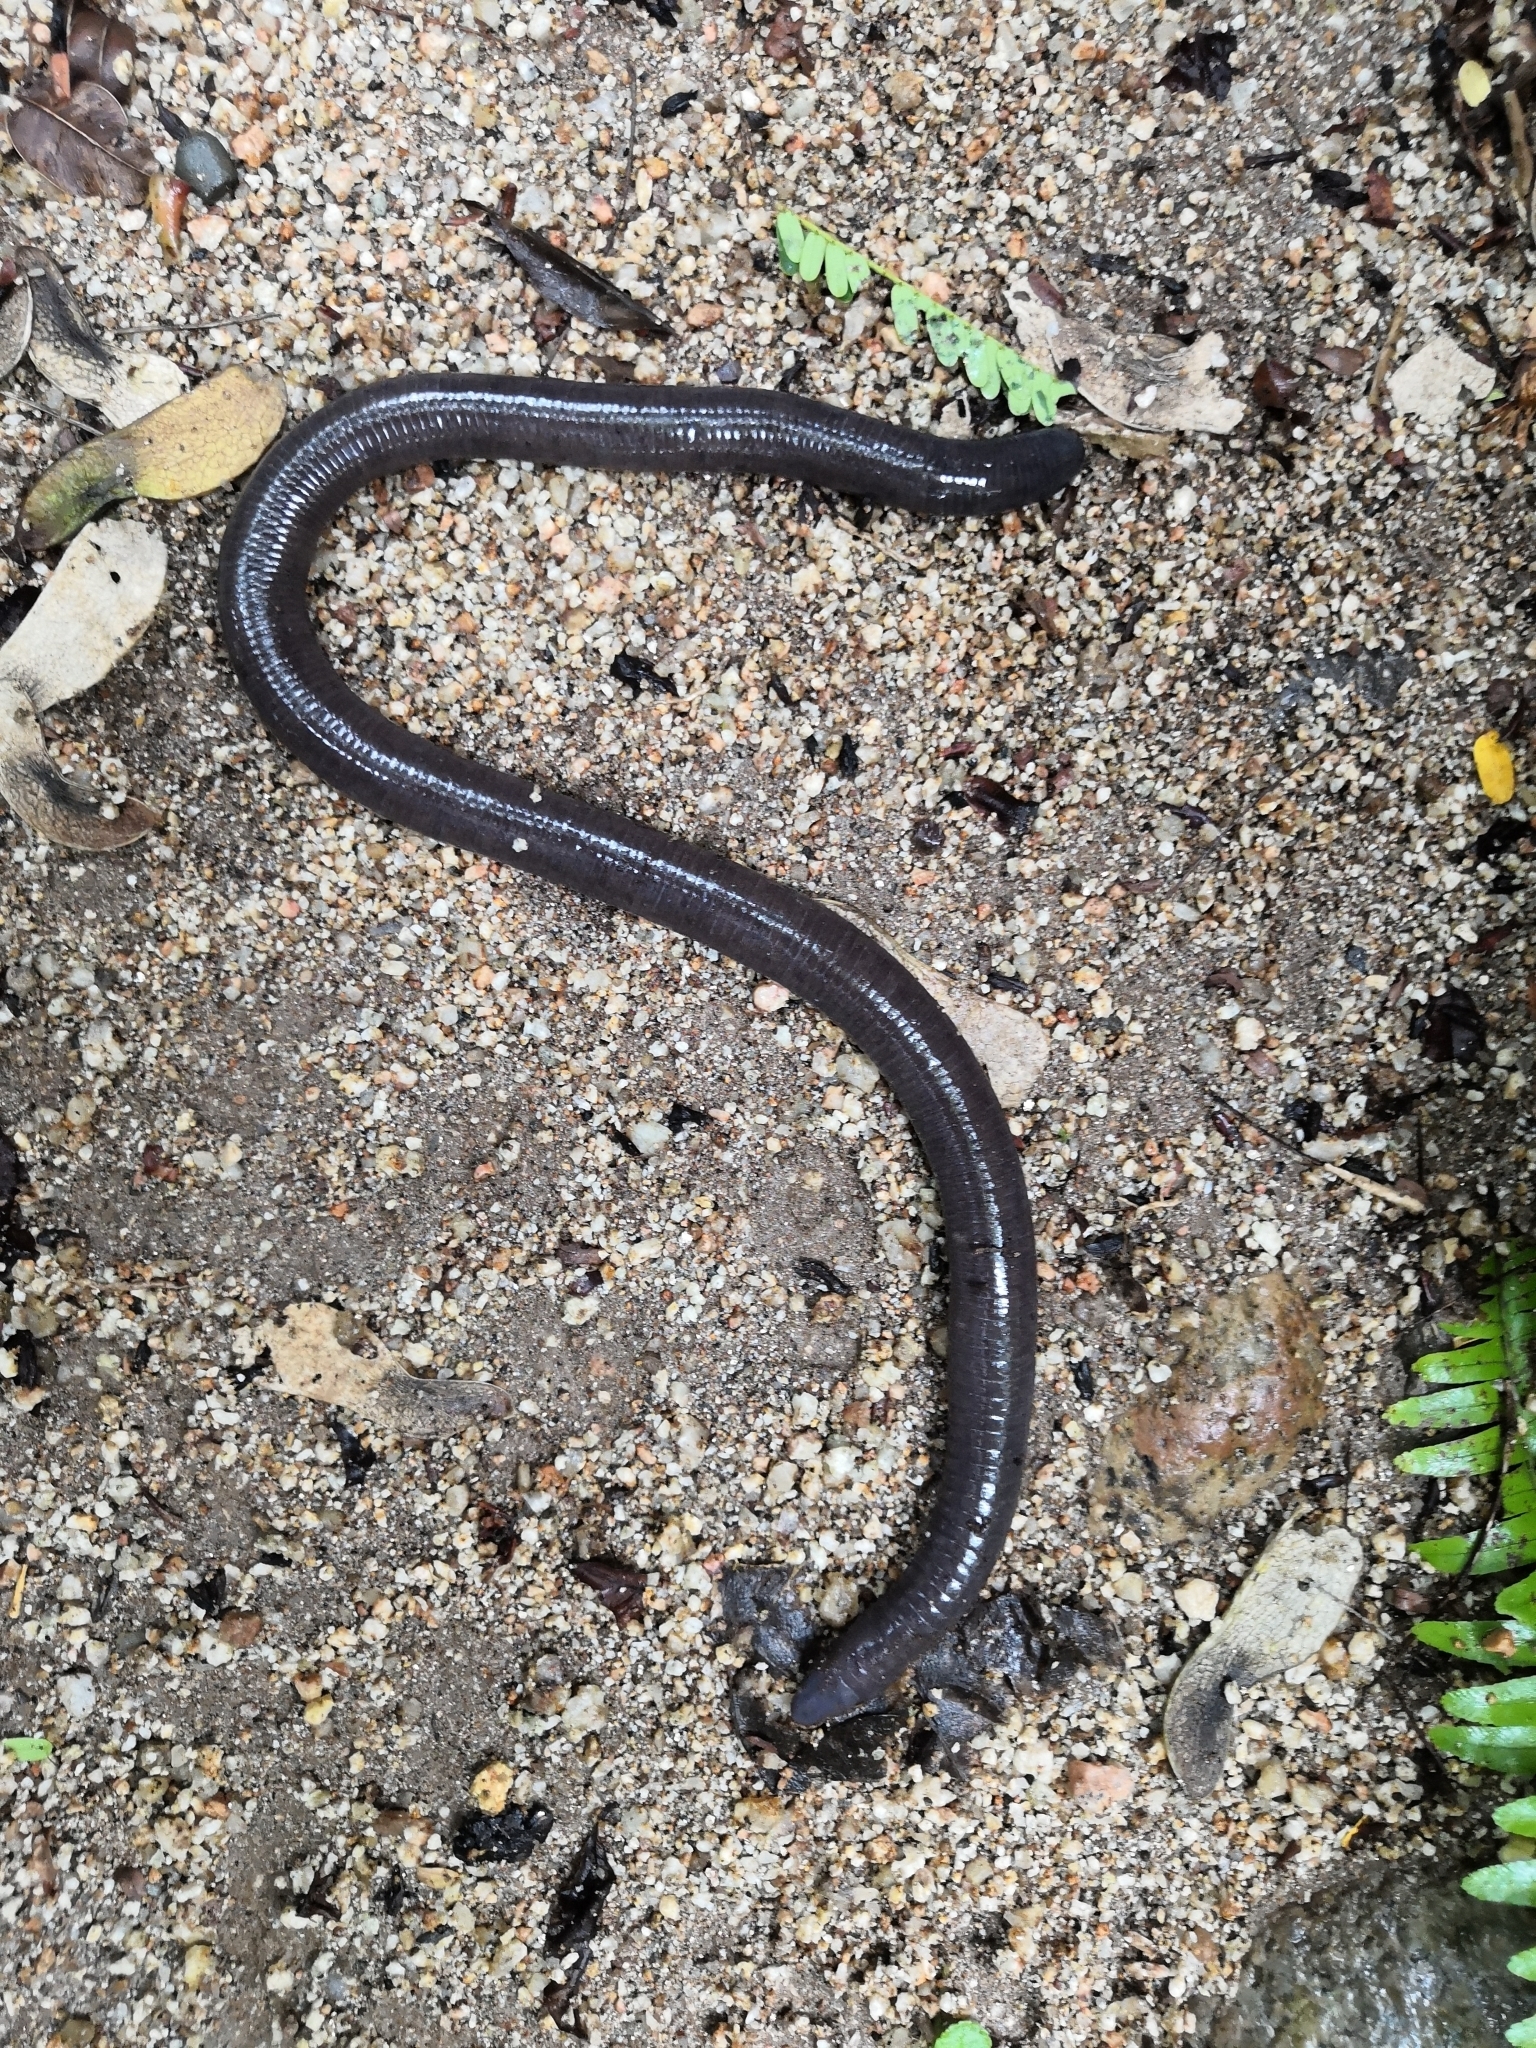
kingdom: Animalia
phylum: Chordata
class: Amphibia
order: Gymnophiona
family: Dermophiidae
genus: Dermophis
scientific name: Dermophis oaxacae
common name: Oaxacan caecilian
